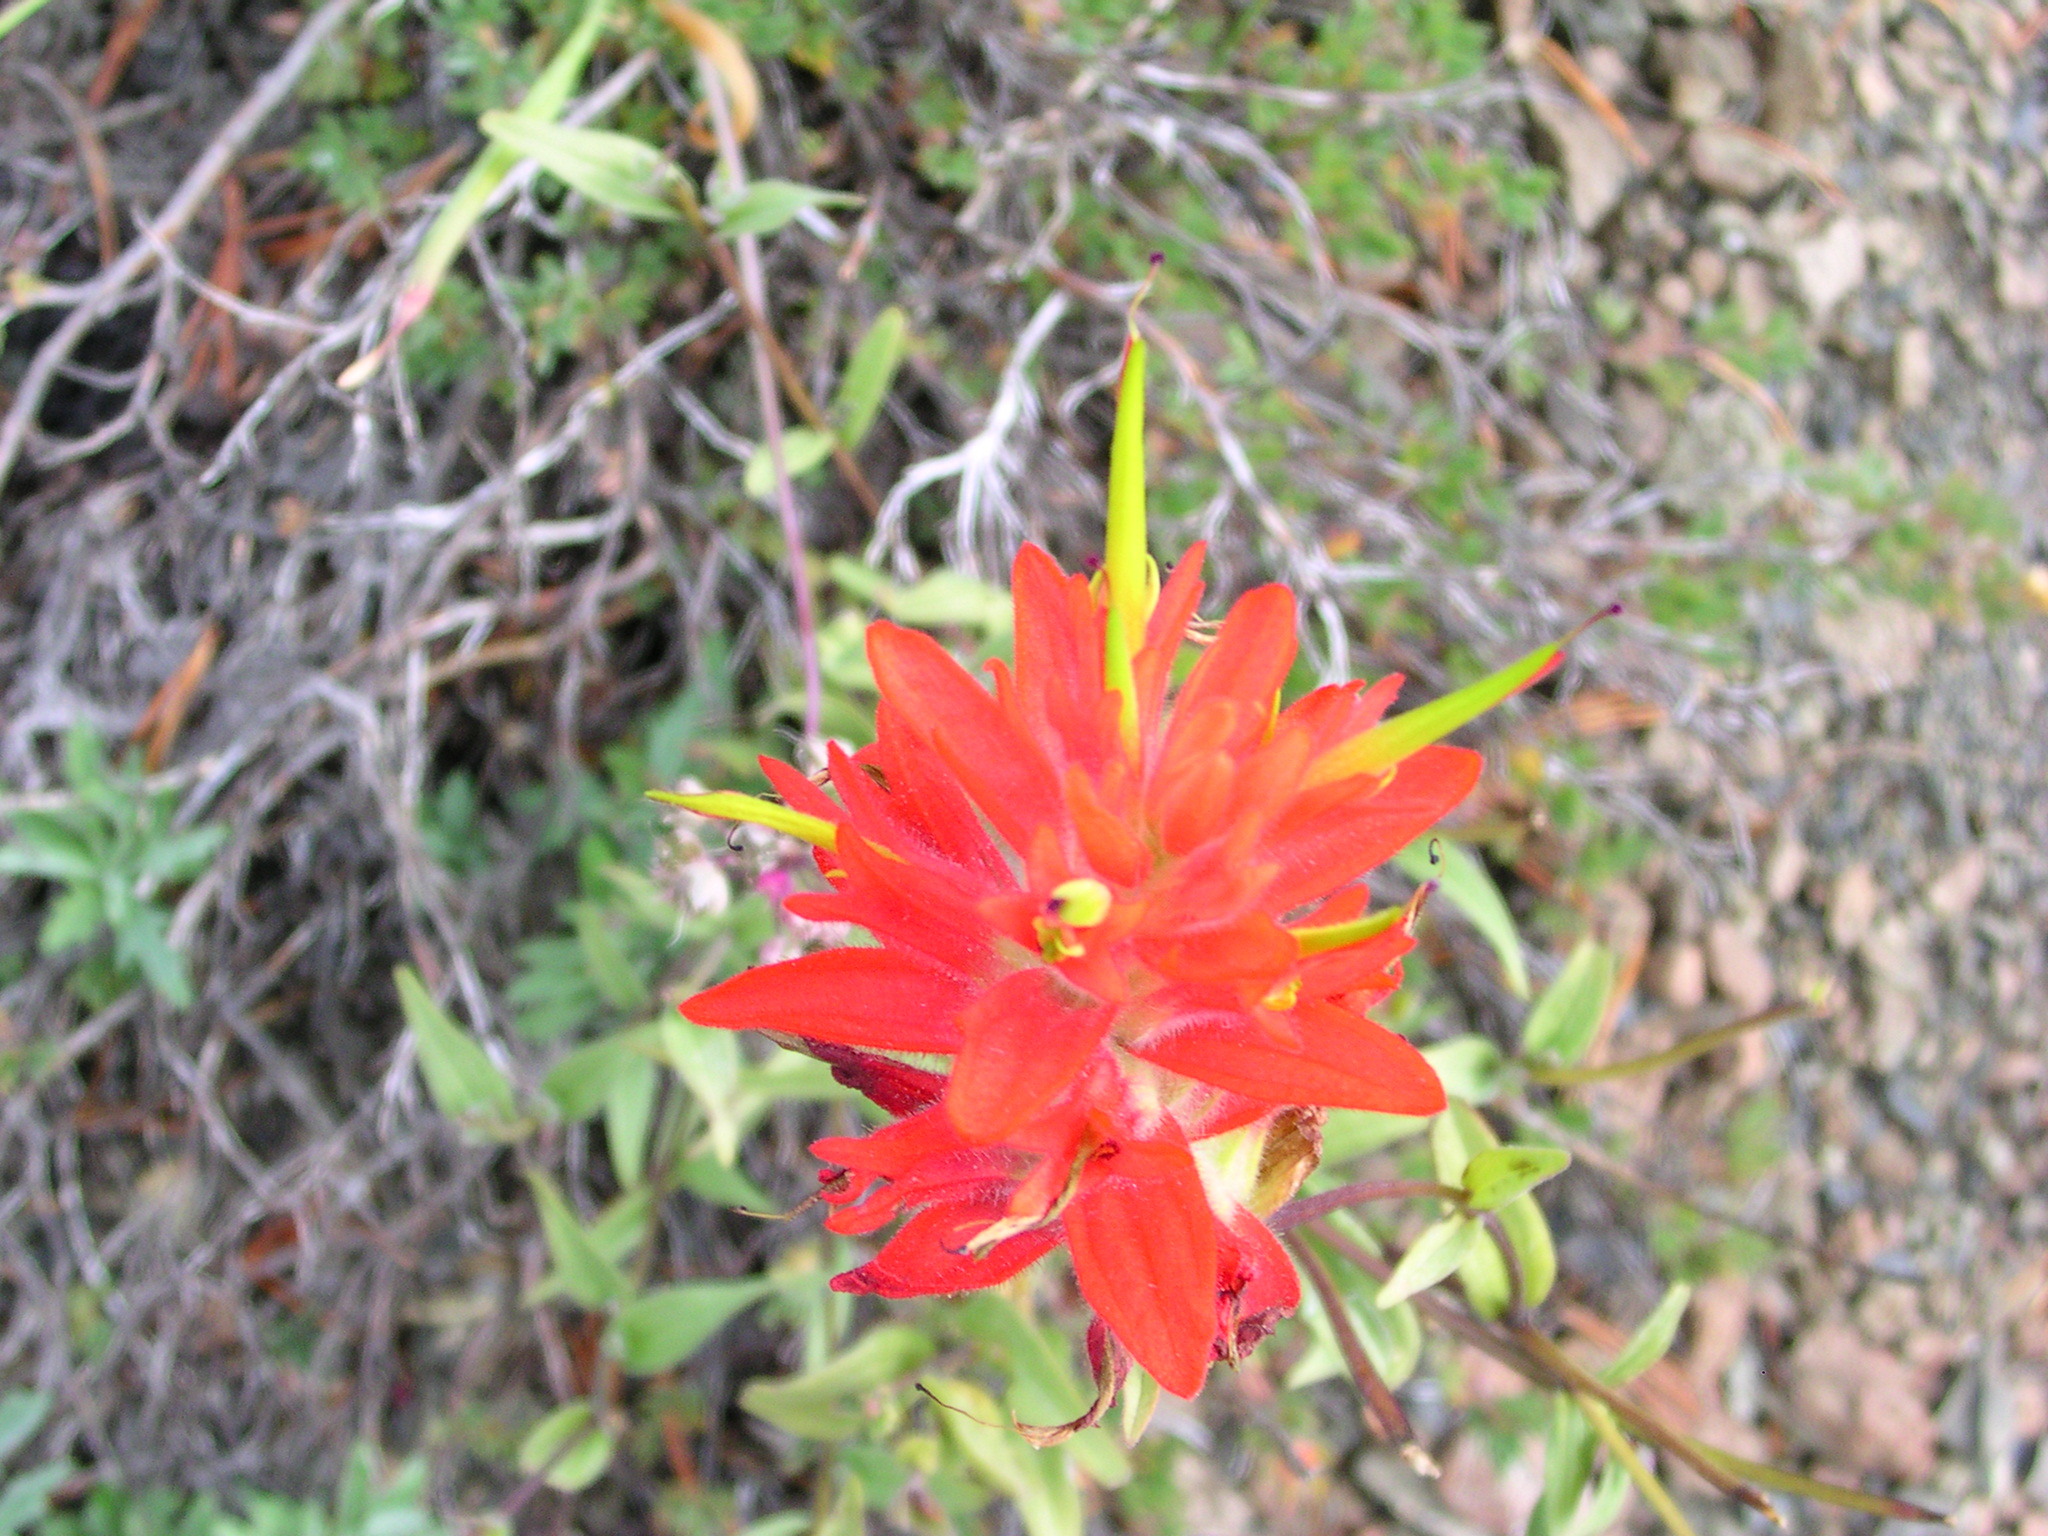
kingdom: Plantae
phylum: Tracheophyta
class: Magnoliopsida
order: Lamiales
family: Orobanchaceae
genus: Castilleja
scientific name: Castilleja miniata
